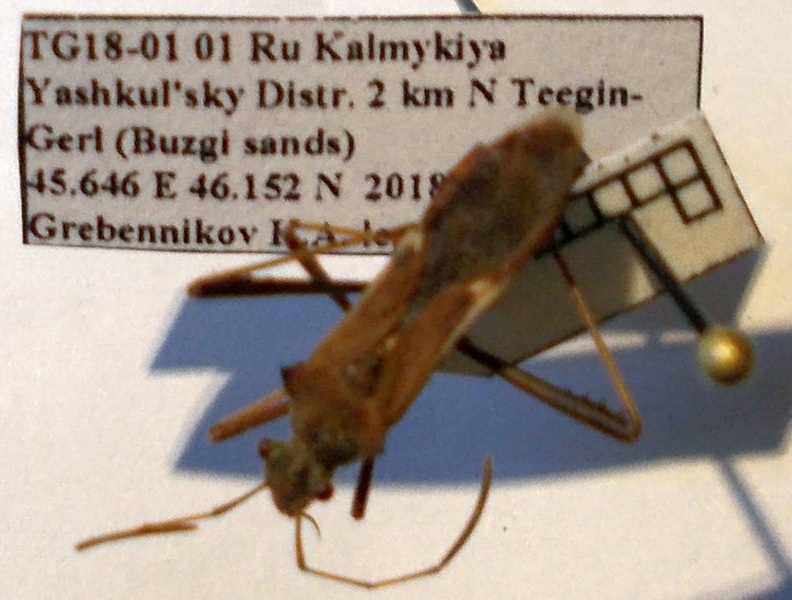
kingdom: Animalia
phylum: Arthropoda
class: Insecta
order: Hemiptera
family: Alydidae
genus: Megalotomus
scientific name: Megalotomus ornaticeps
